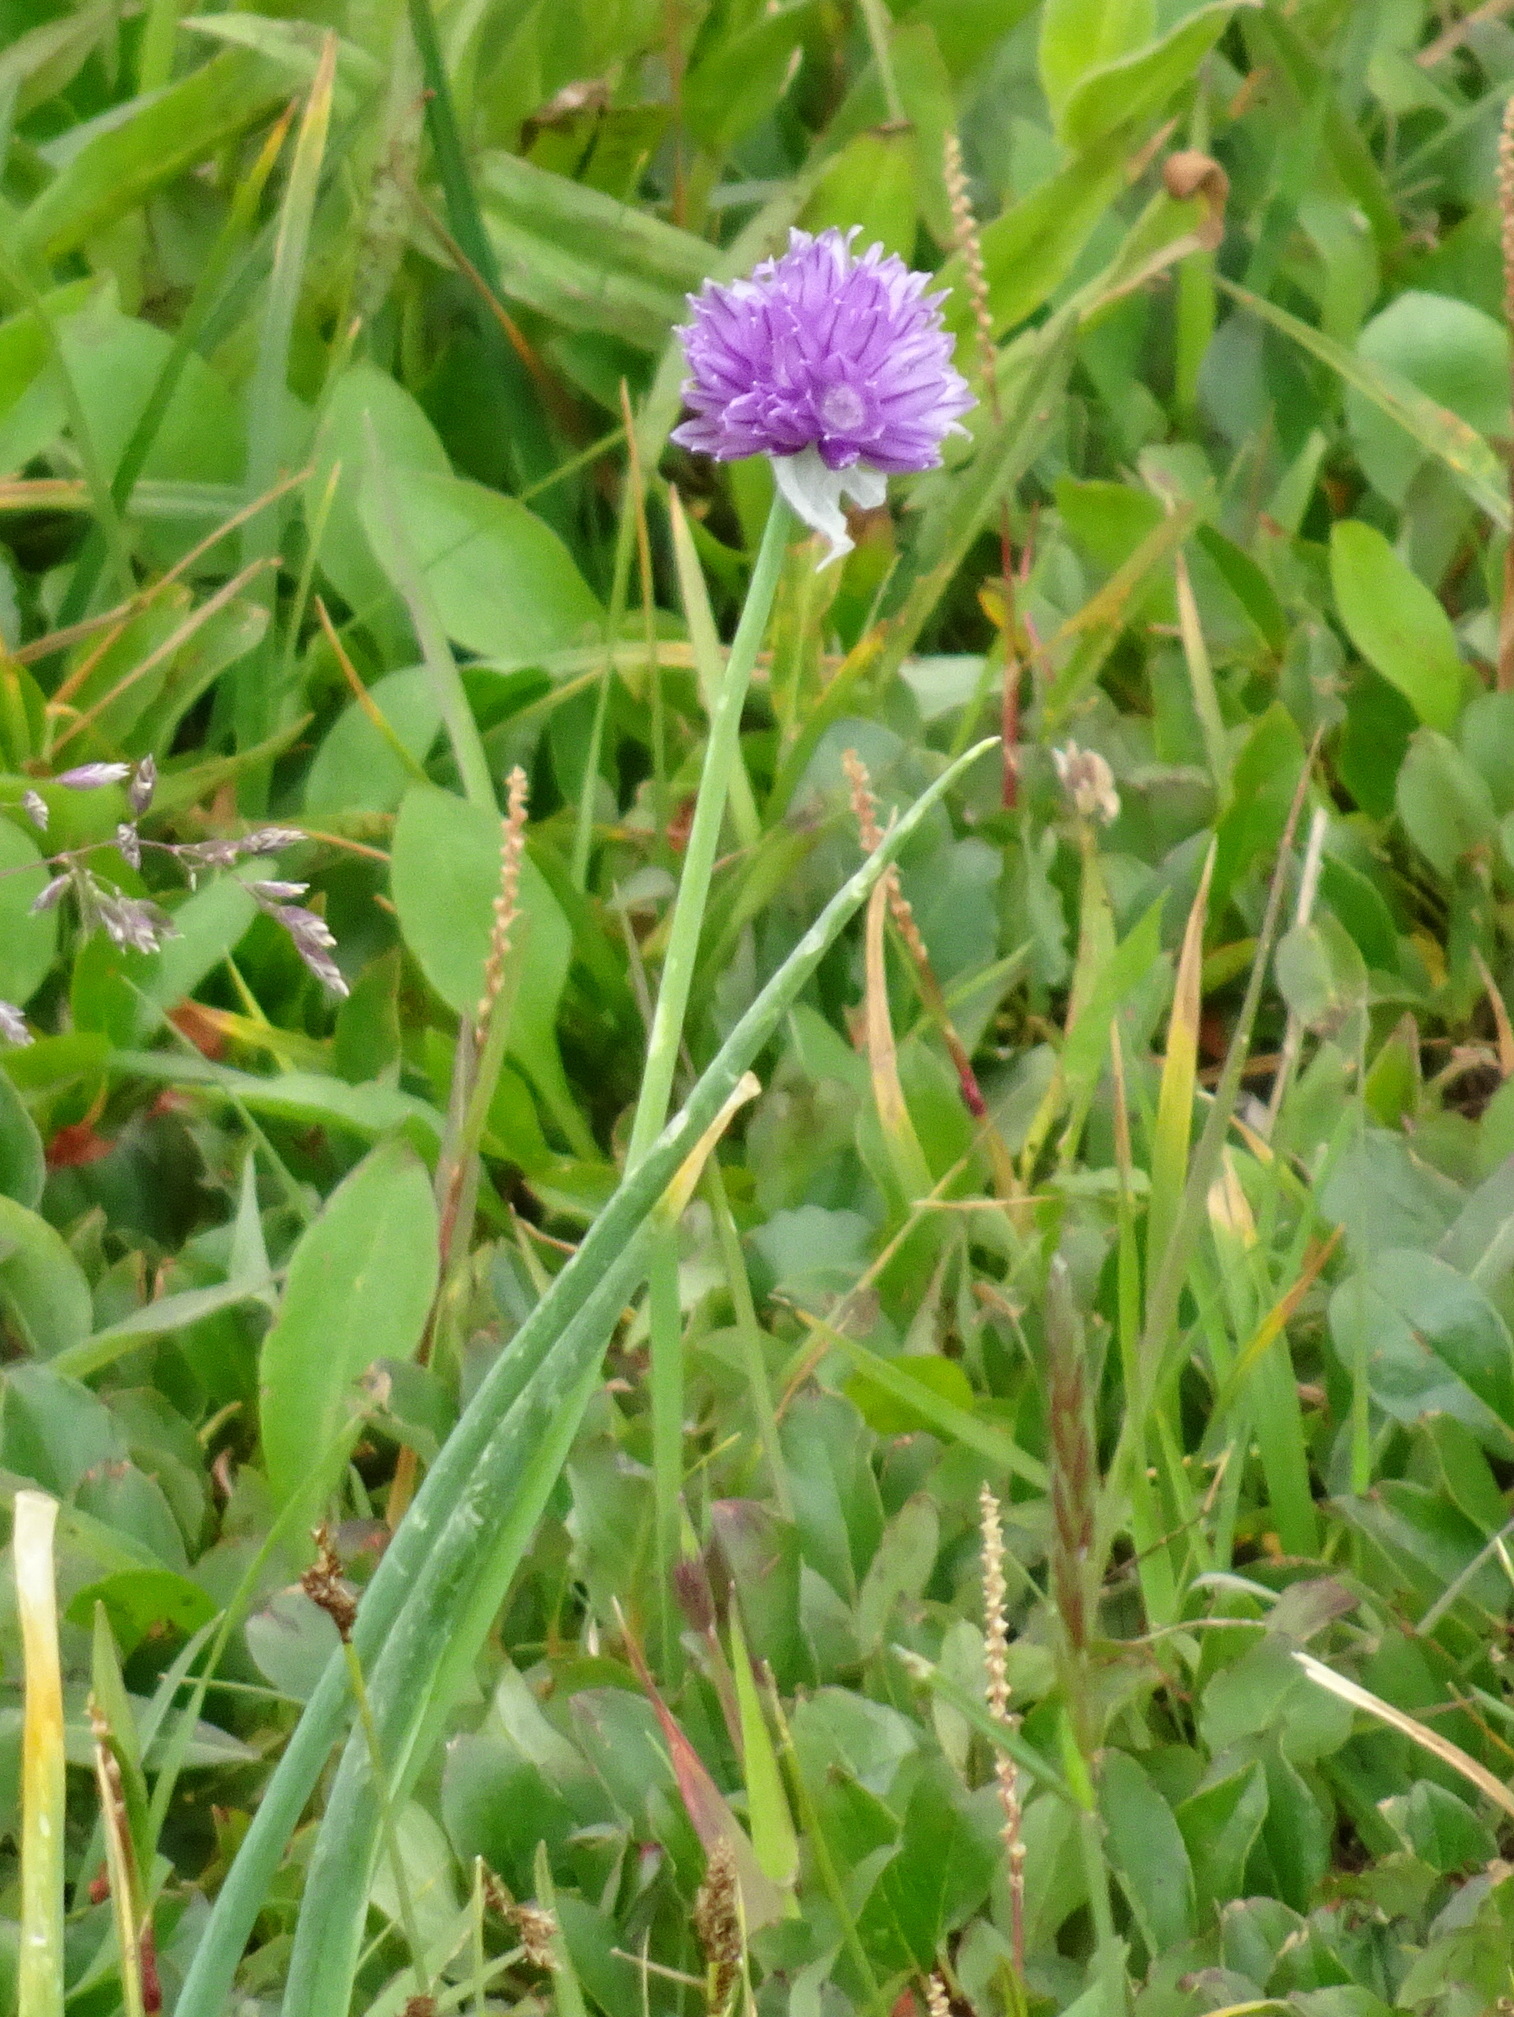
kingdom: Plantae
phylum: Tracheophyta
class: Liliopsida
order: Asparagales
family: Amaryllidaceae
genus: Allium
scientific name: Allium schoenoprasum
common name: Chives
